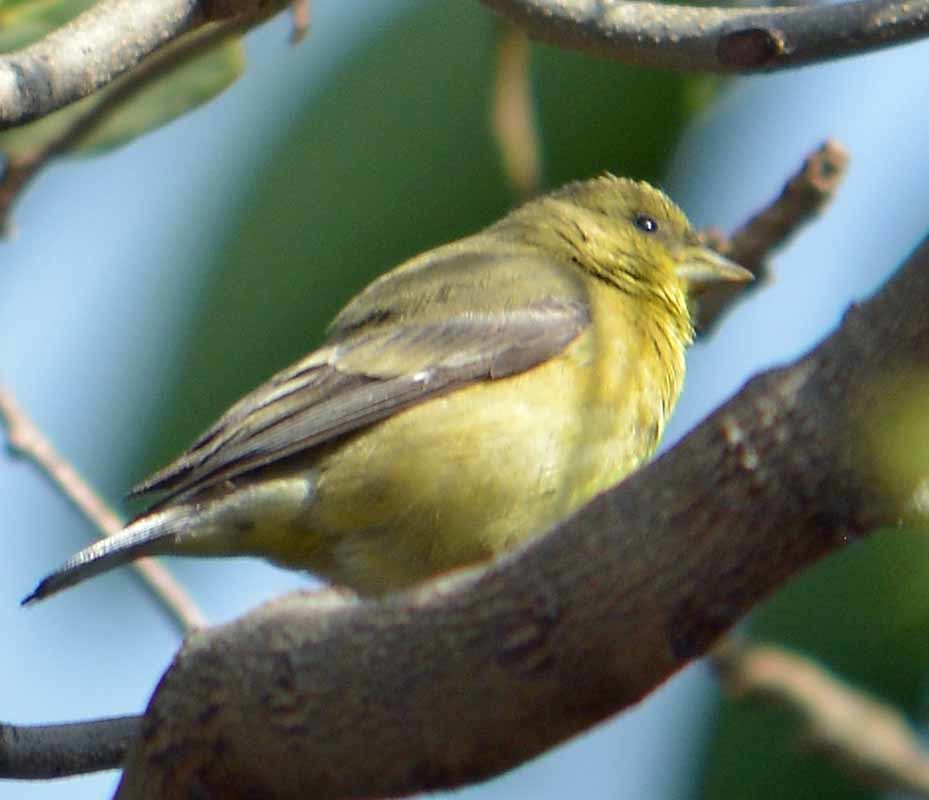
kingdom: Animalia
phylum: Chordata
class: Aves
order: Passeriformes
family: Fringillidae
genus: Spinus
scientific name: Spinus psaltria
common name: Lesser goldfinch
